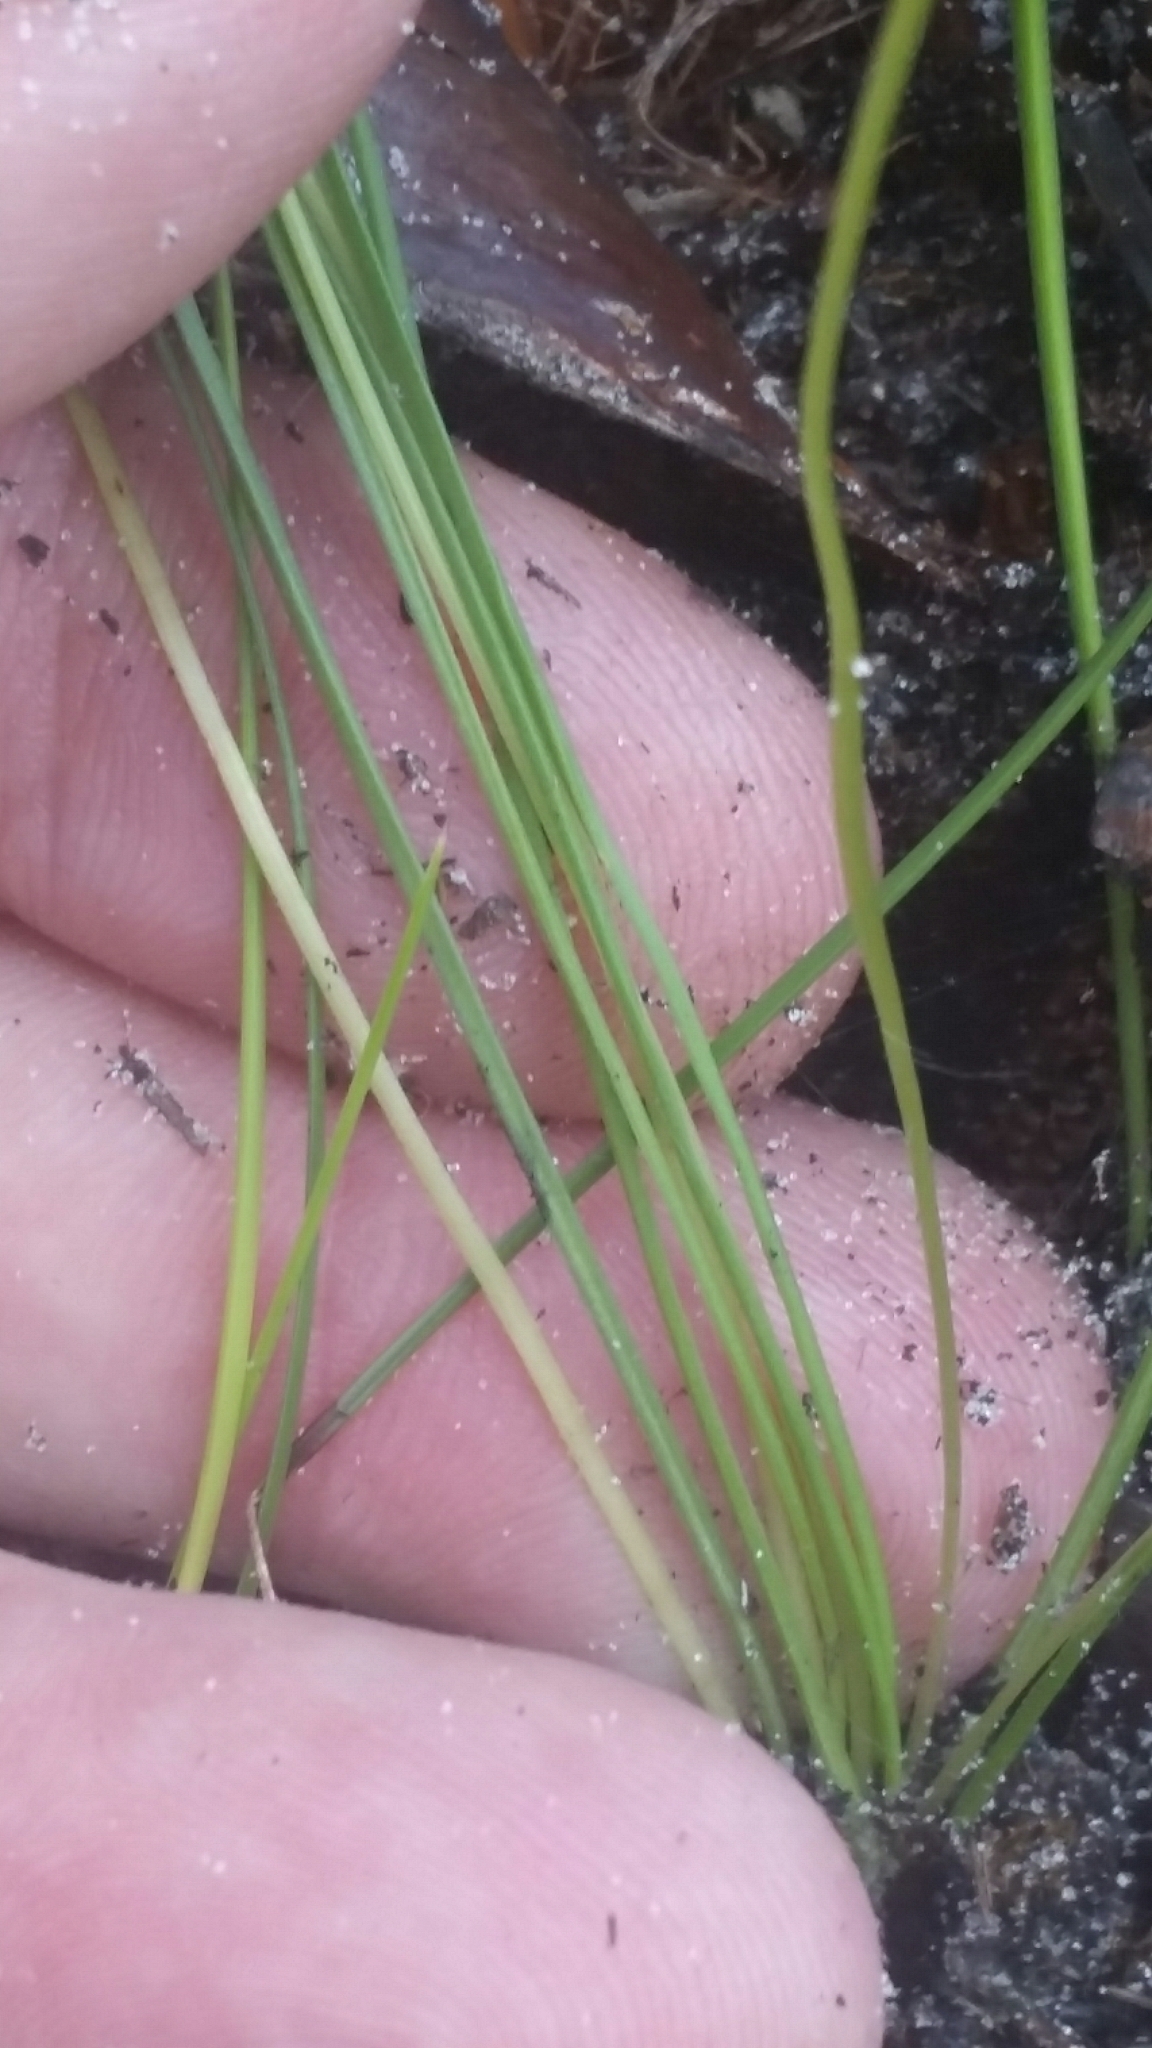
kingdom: Plantae
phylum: Tracheophyta
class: Liliopsida
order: Asparagales
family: Hypoxidaceae
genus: Hypoxis
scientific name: Hypoxis juncea
